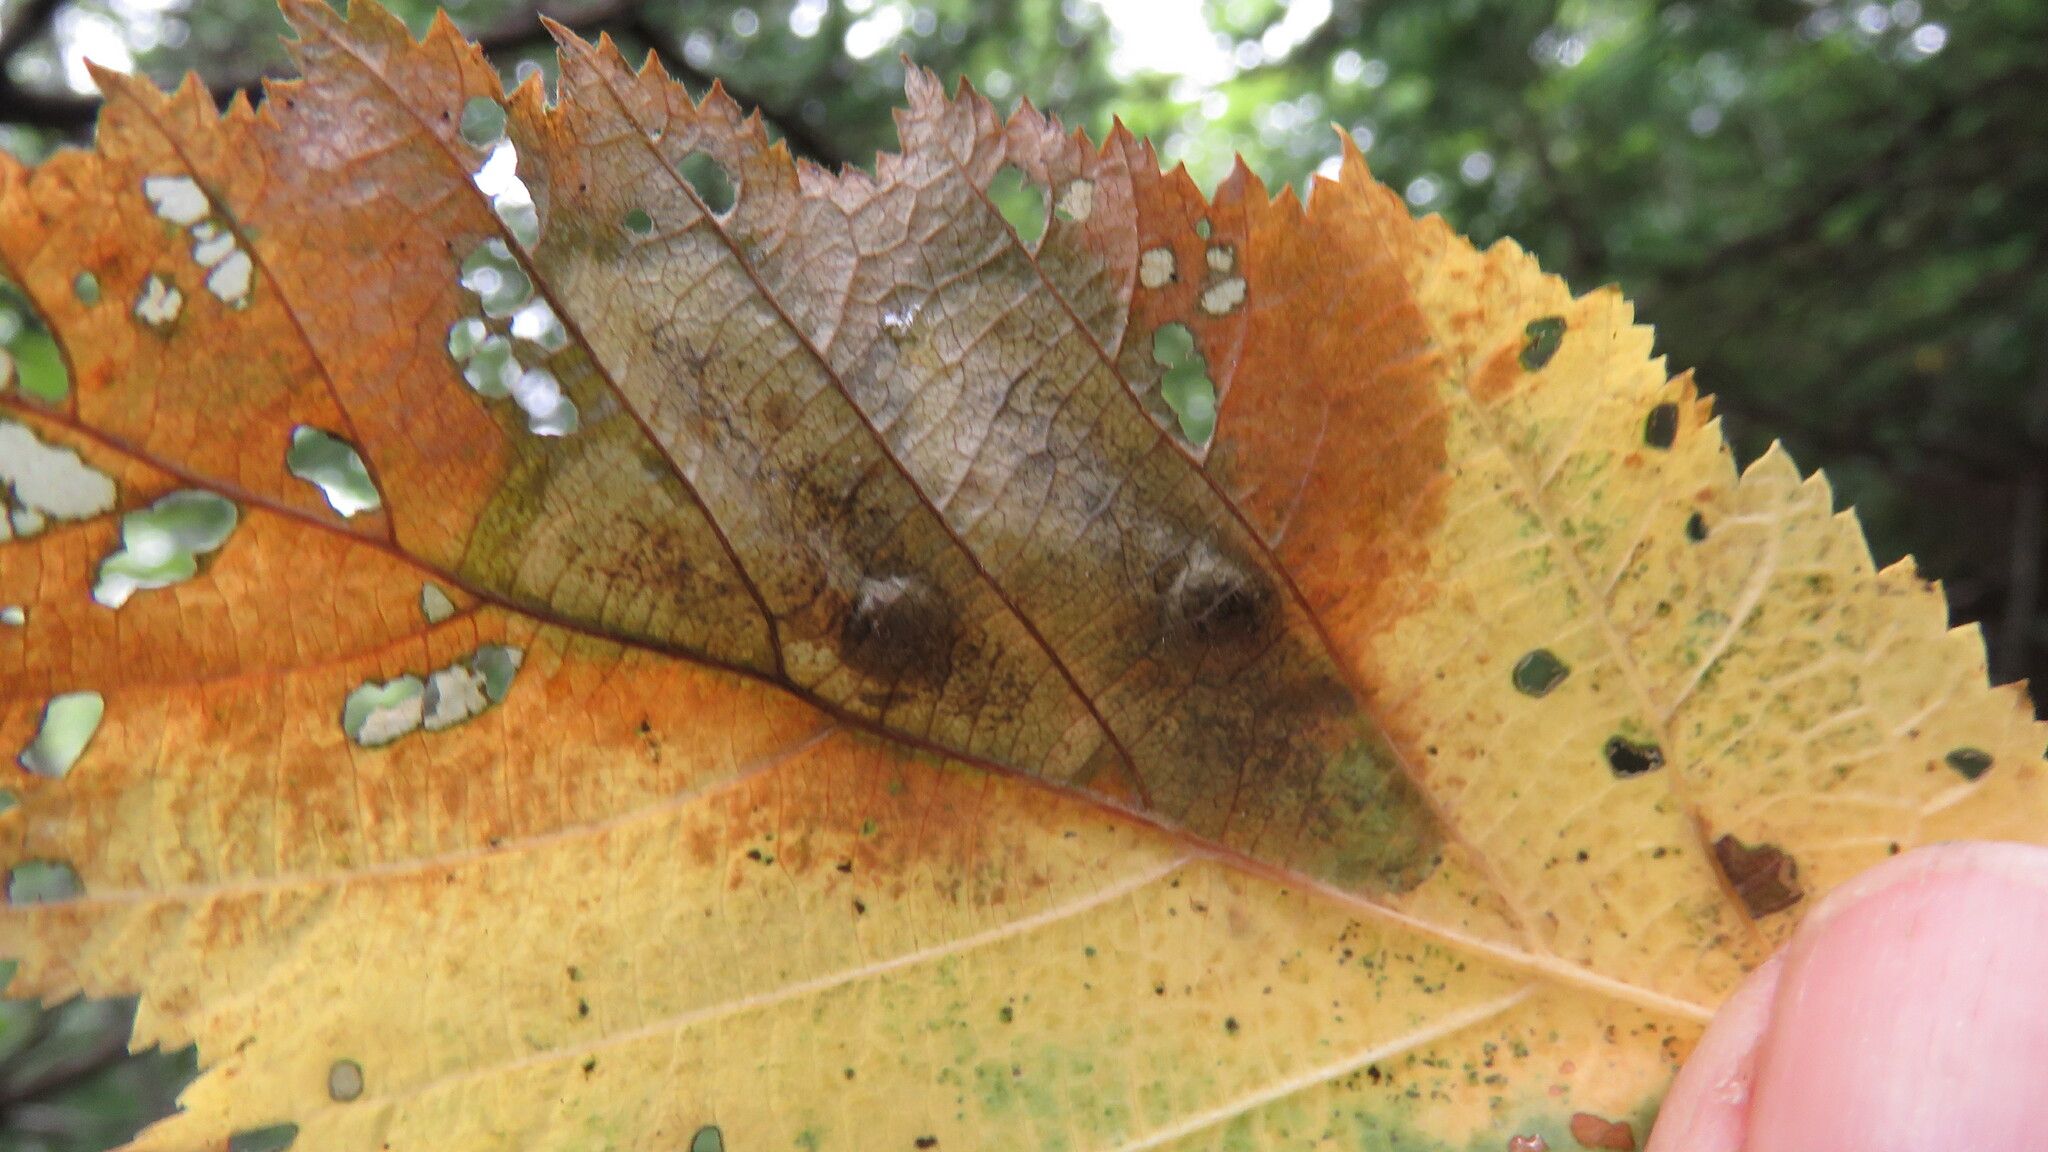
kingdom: Animalia
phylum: Arthropoda
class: Insecta
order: Lepidoptera
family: Gracillariidae
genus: Cameraria
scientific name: Cameraria corylisella
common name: Hazel blotchminer
